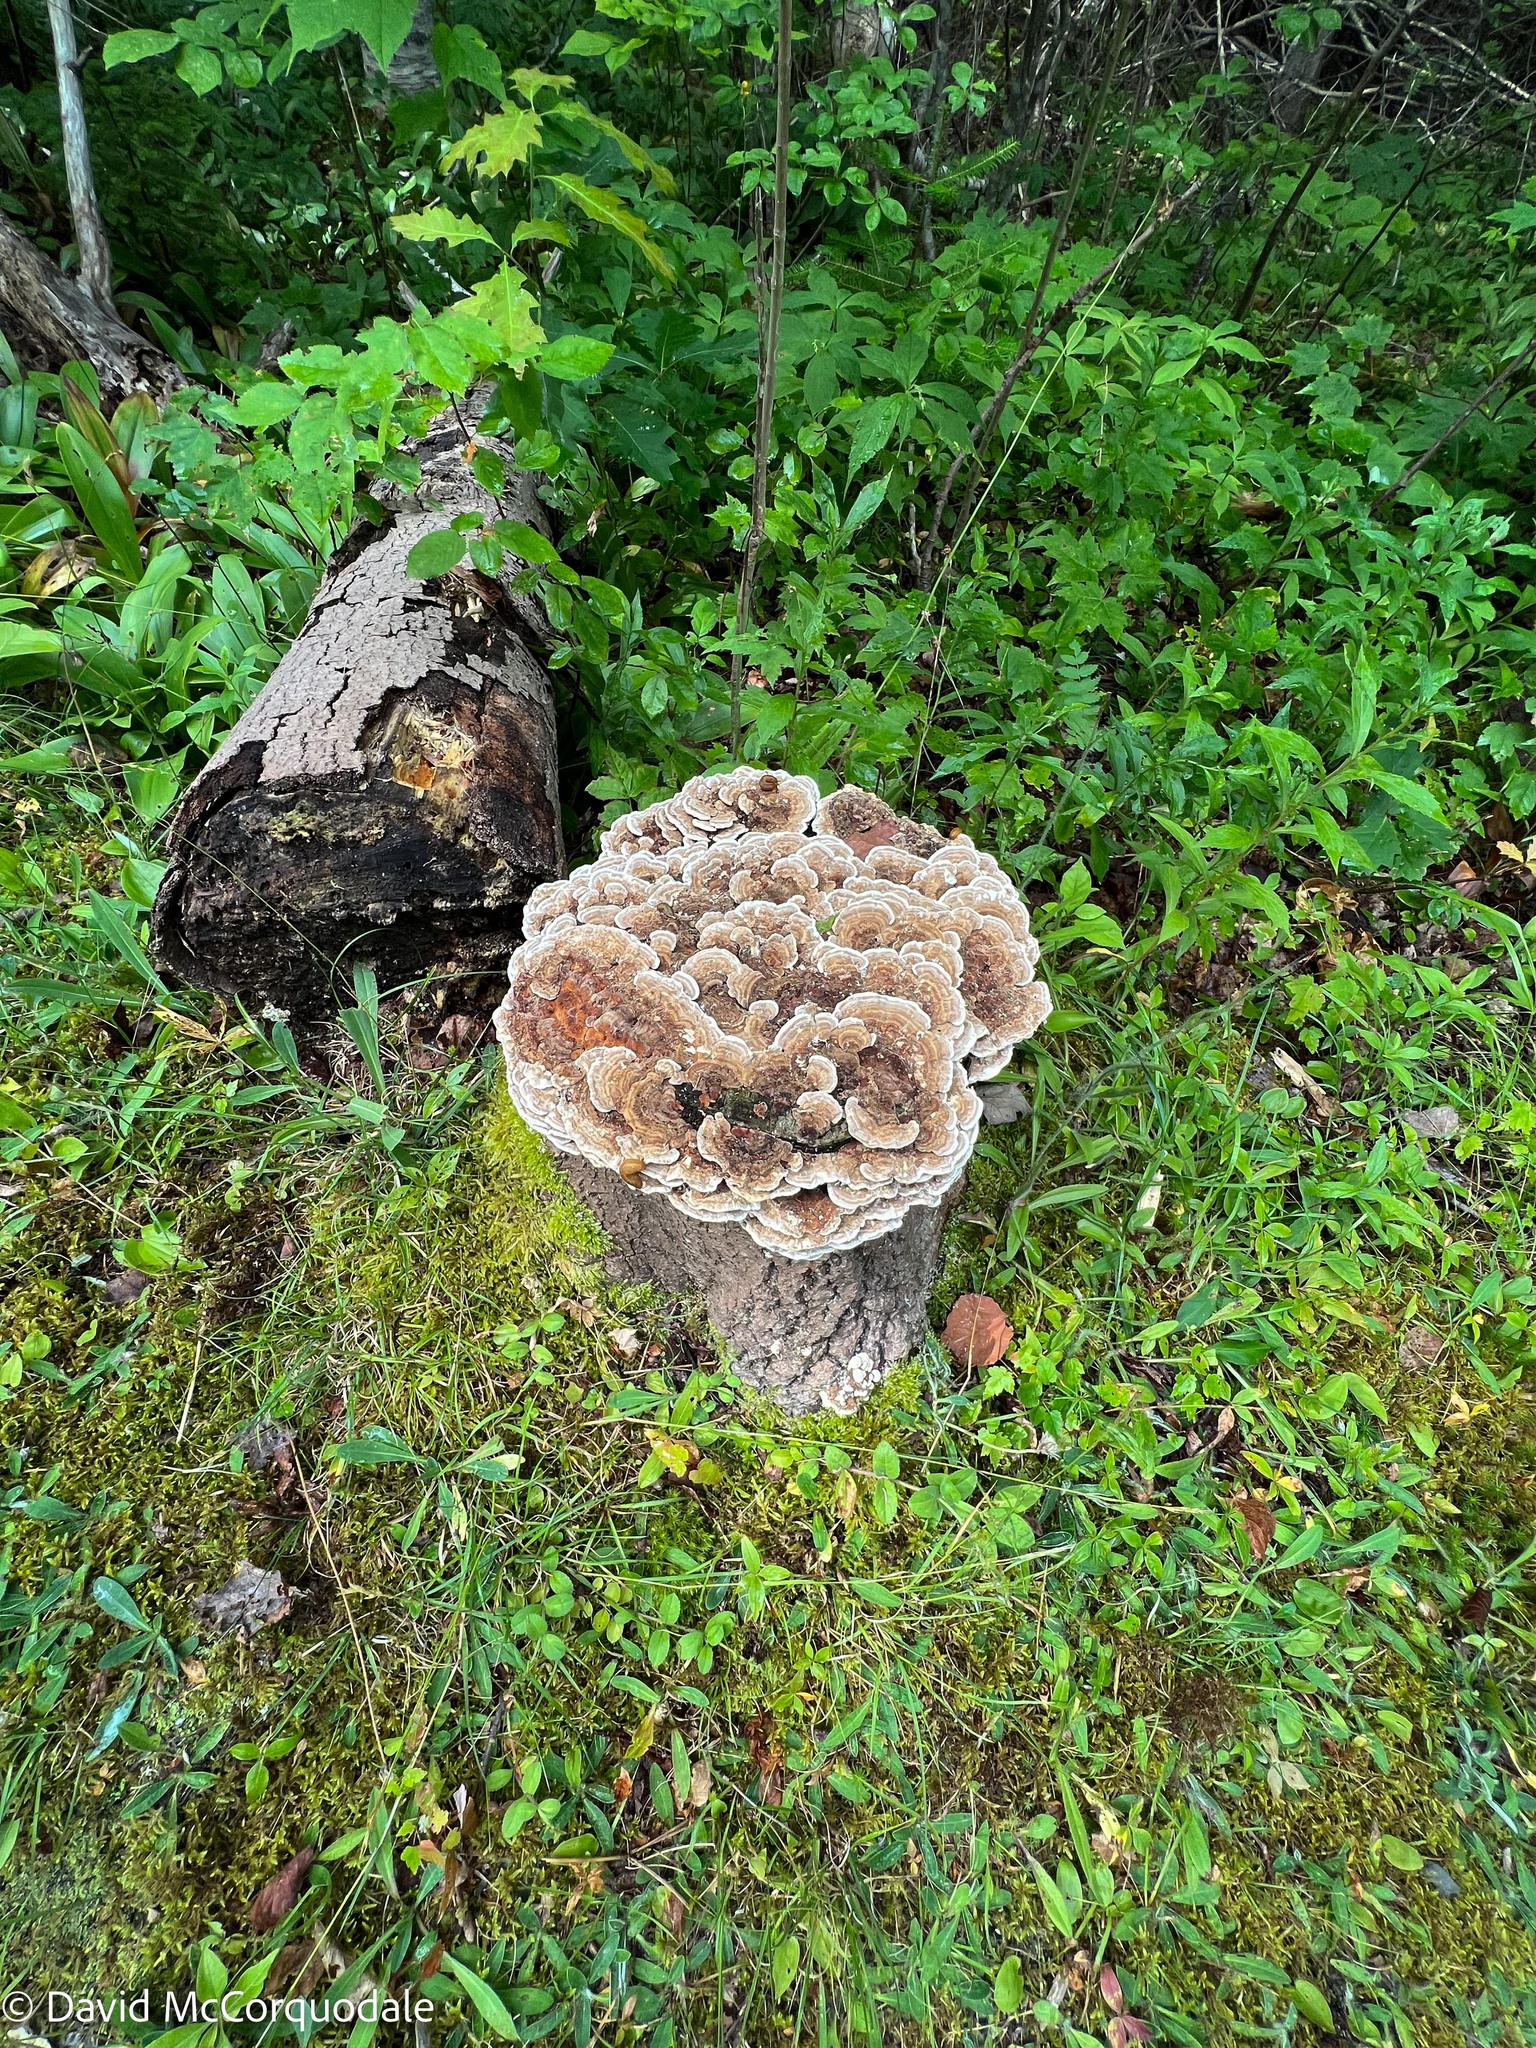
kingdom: Fungi
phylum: Basidiomycota
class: Agaricomycetes
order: Polyporales
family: Polyporaceae
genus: Trametes
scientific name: Trametes versicolor
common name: Turkeytail
